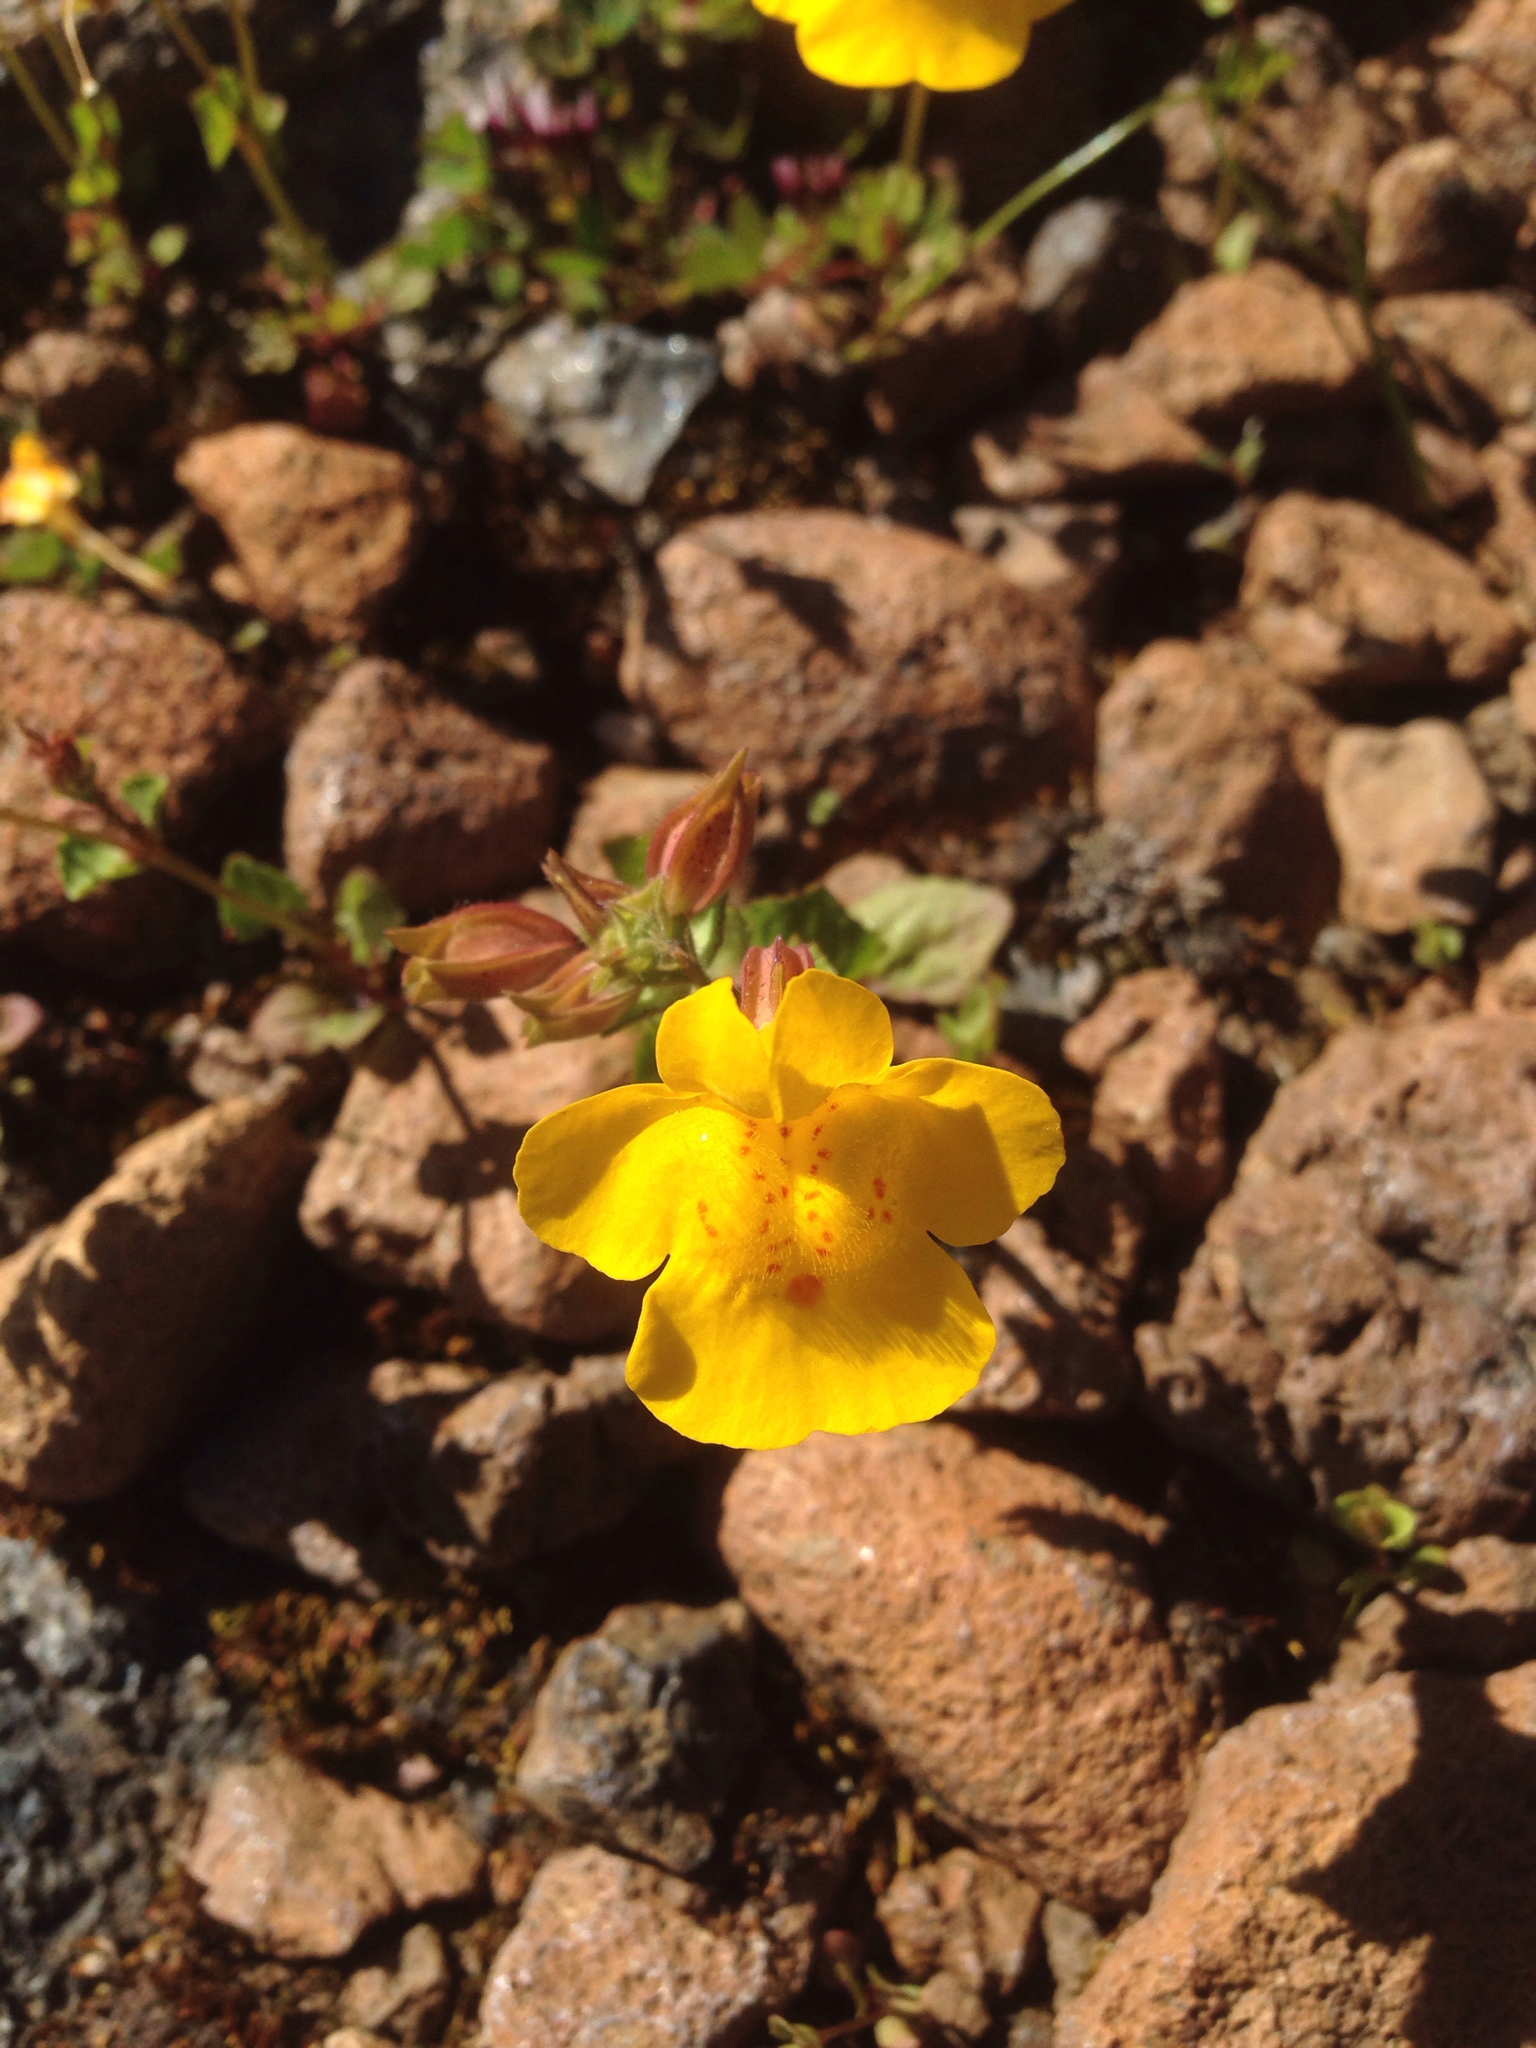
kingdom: Plantae
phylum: Tracheophyta
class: Magnoliopsida
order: Lamiales
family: Phrymaceae
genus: Erythranthe
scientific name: Erythranthe guttata
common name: Monkeyflower
